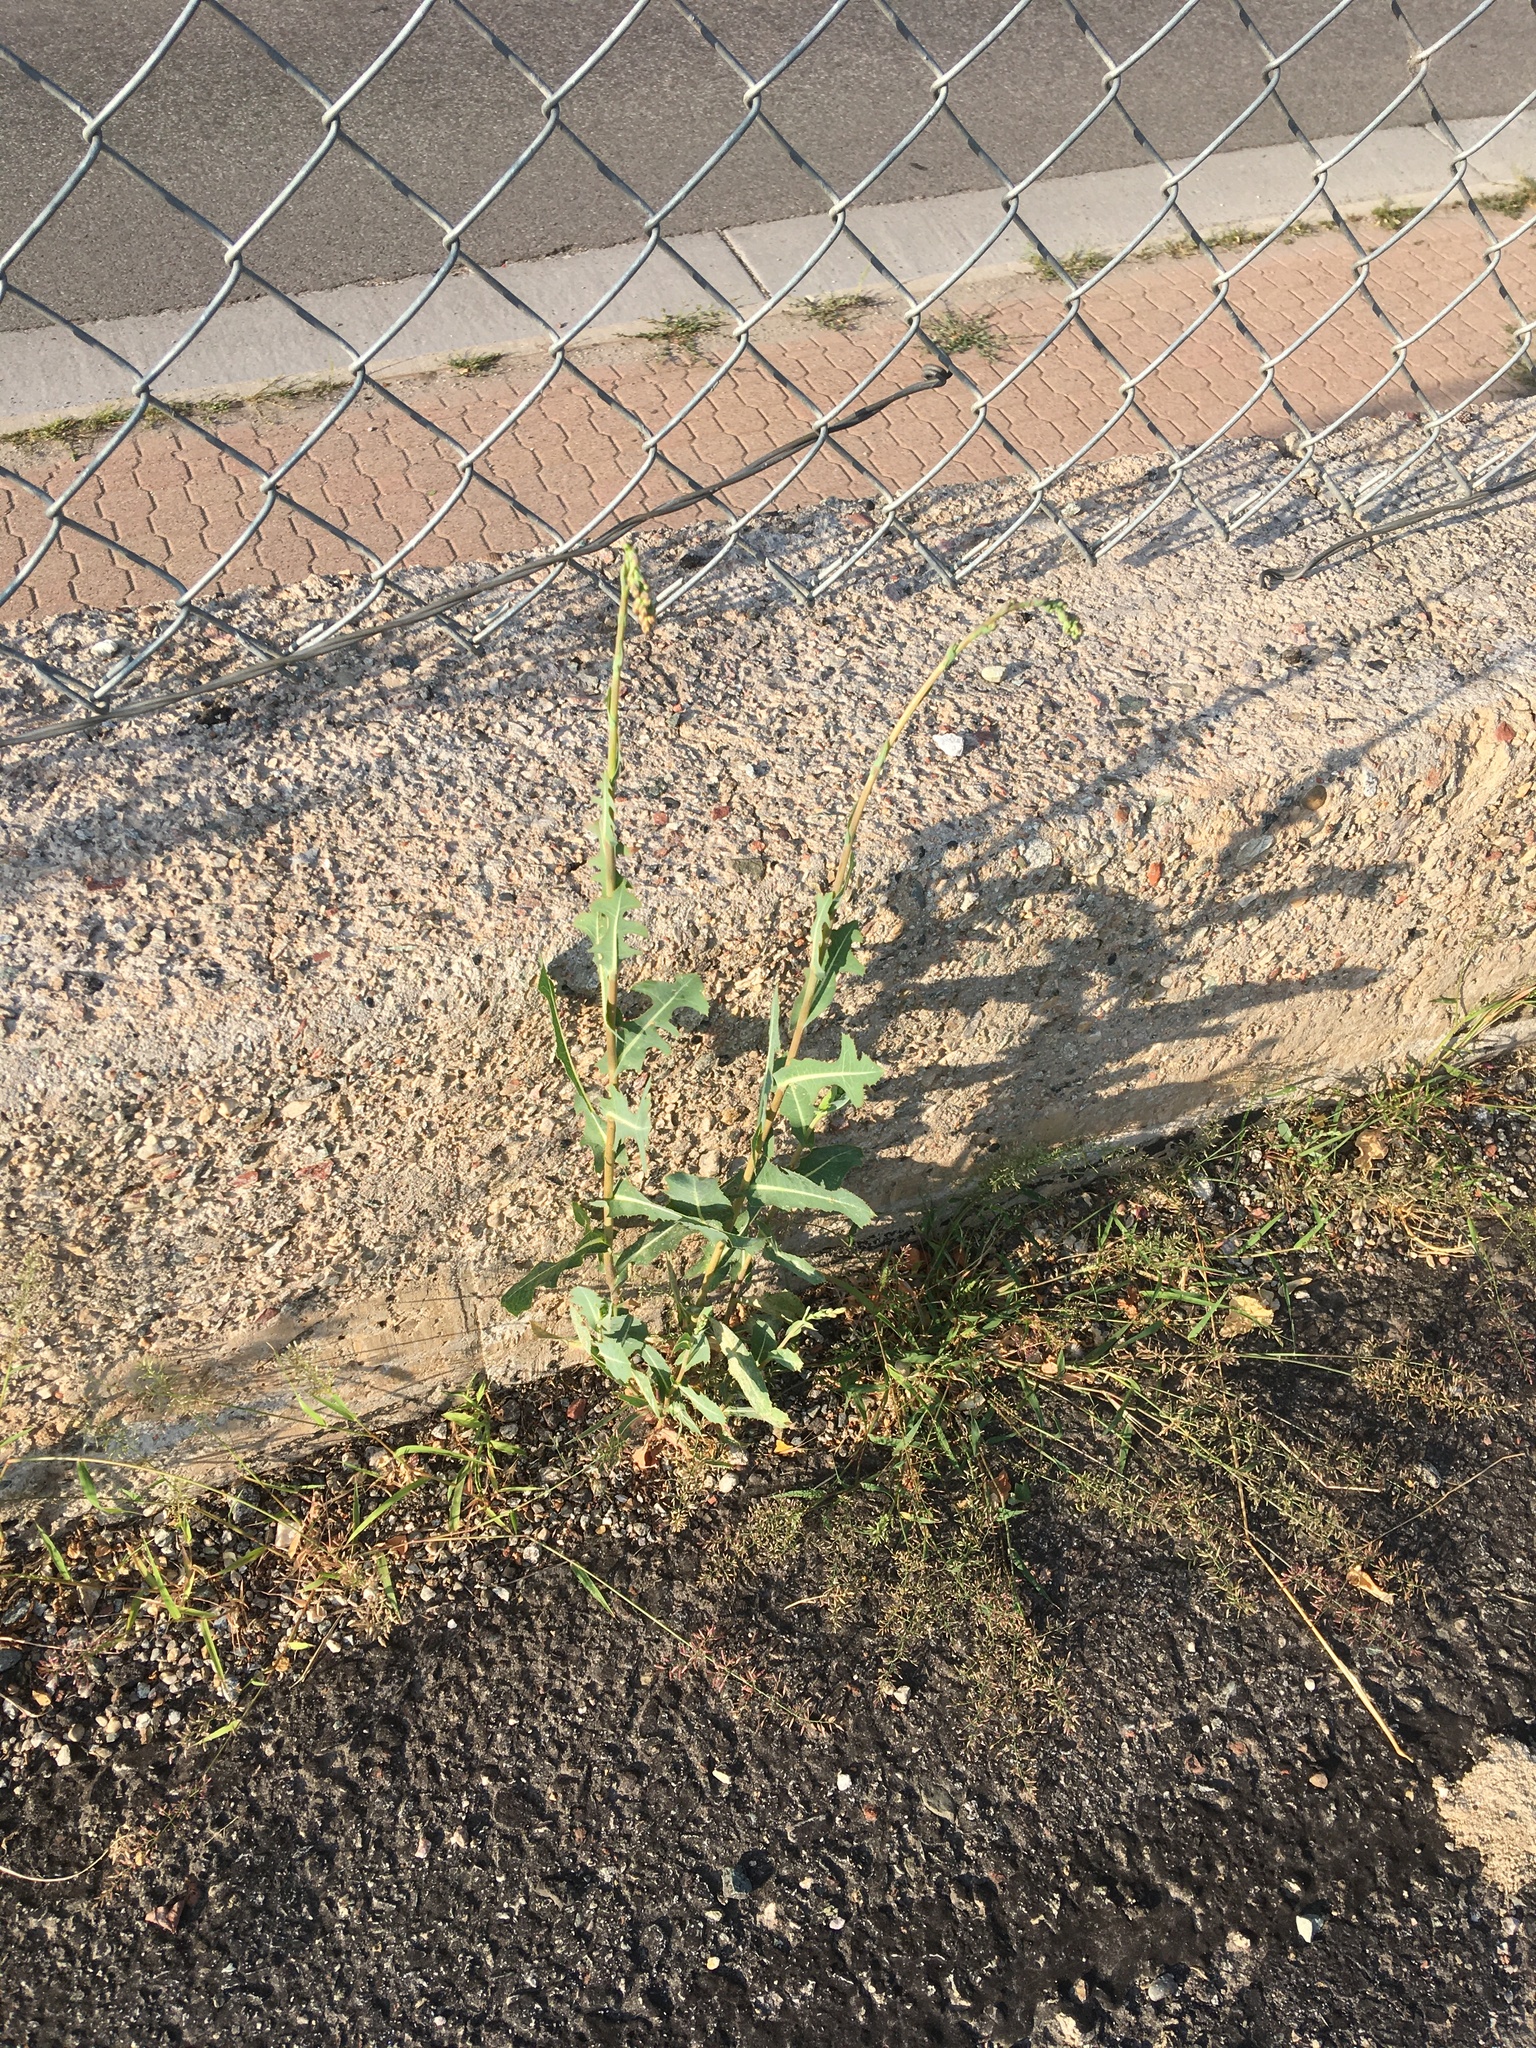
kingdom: Plantae
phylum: Tracheophyta
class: Magnoliopsida
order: Asterales
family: Asteraceae
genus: Lactuca
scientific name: Lactuca serriola
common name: Prickly lettuce
